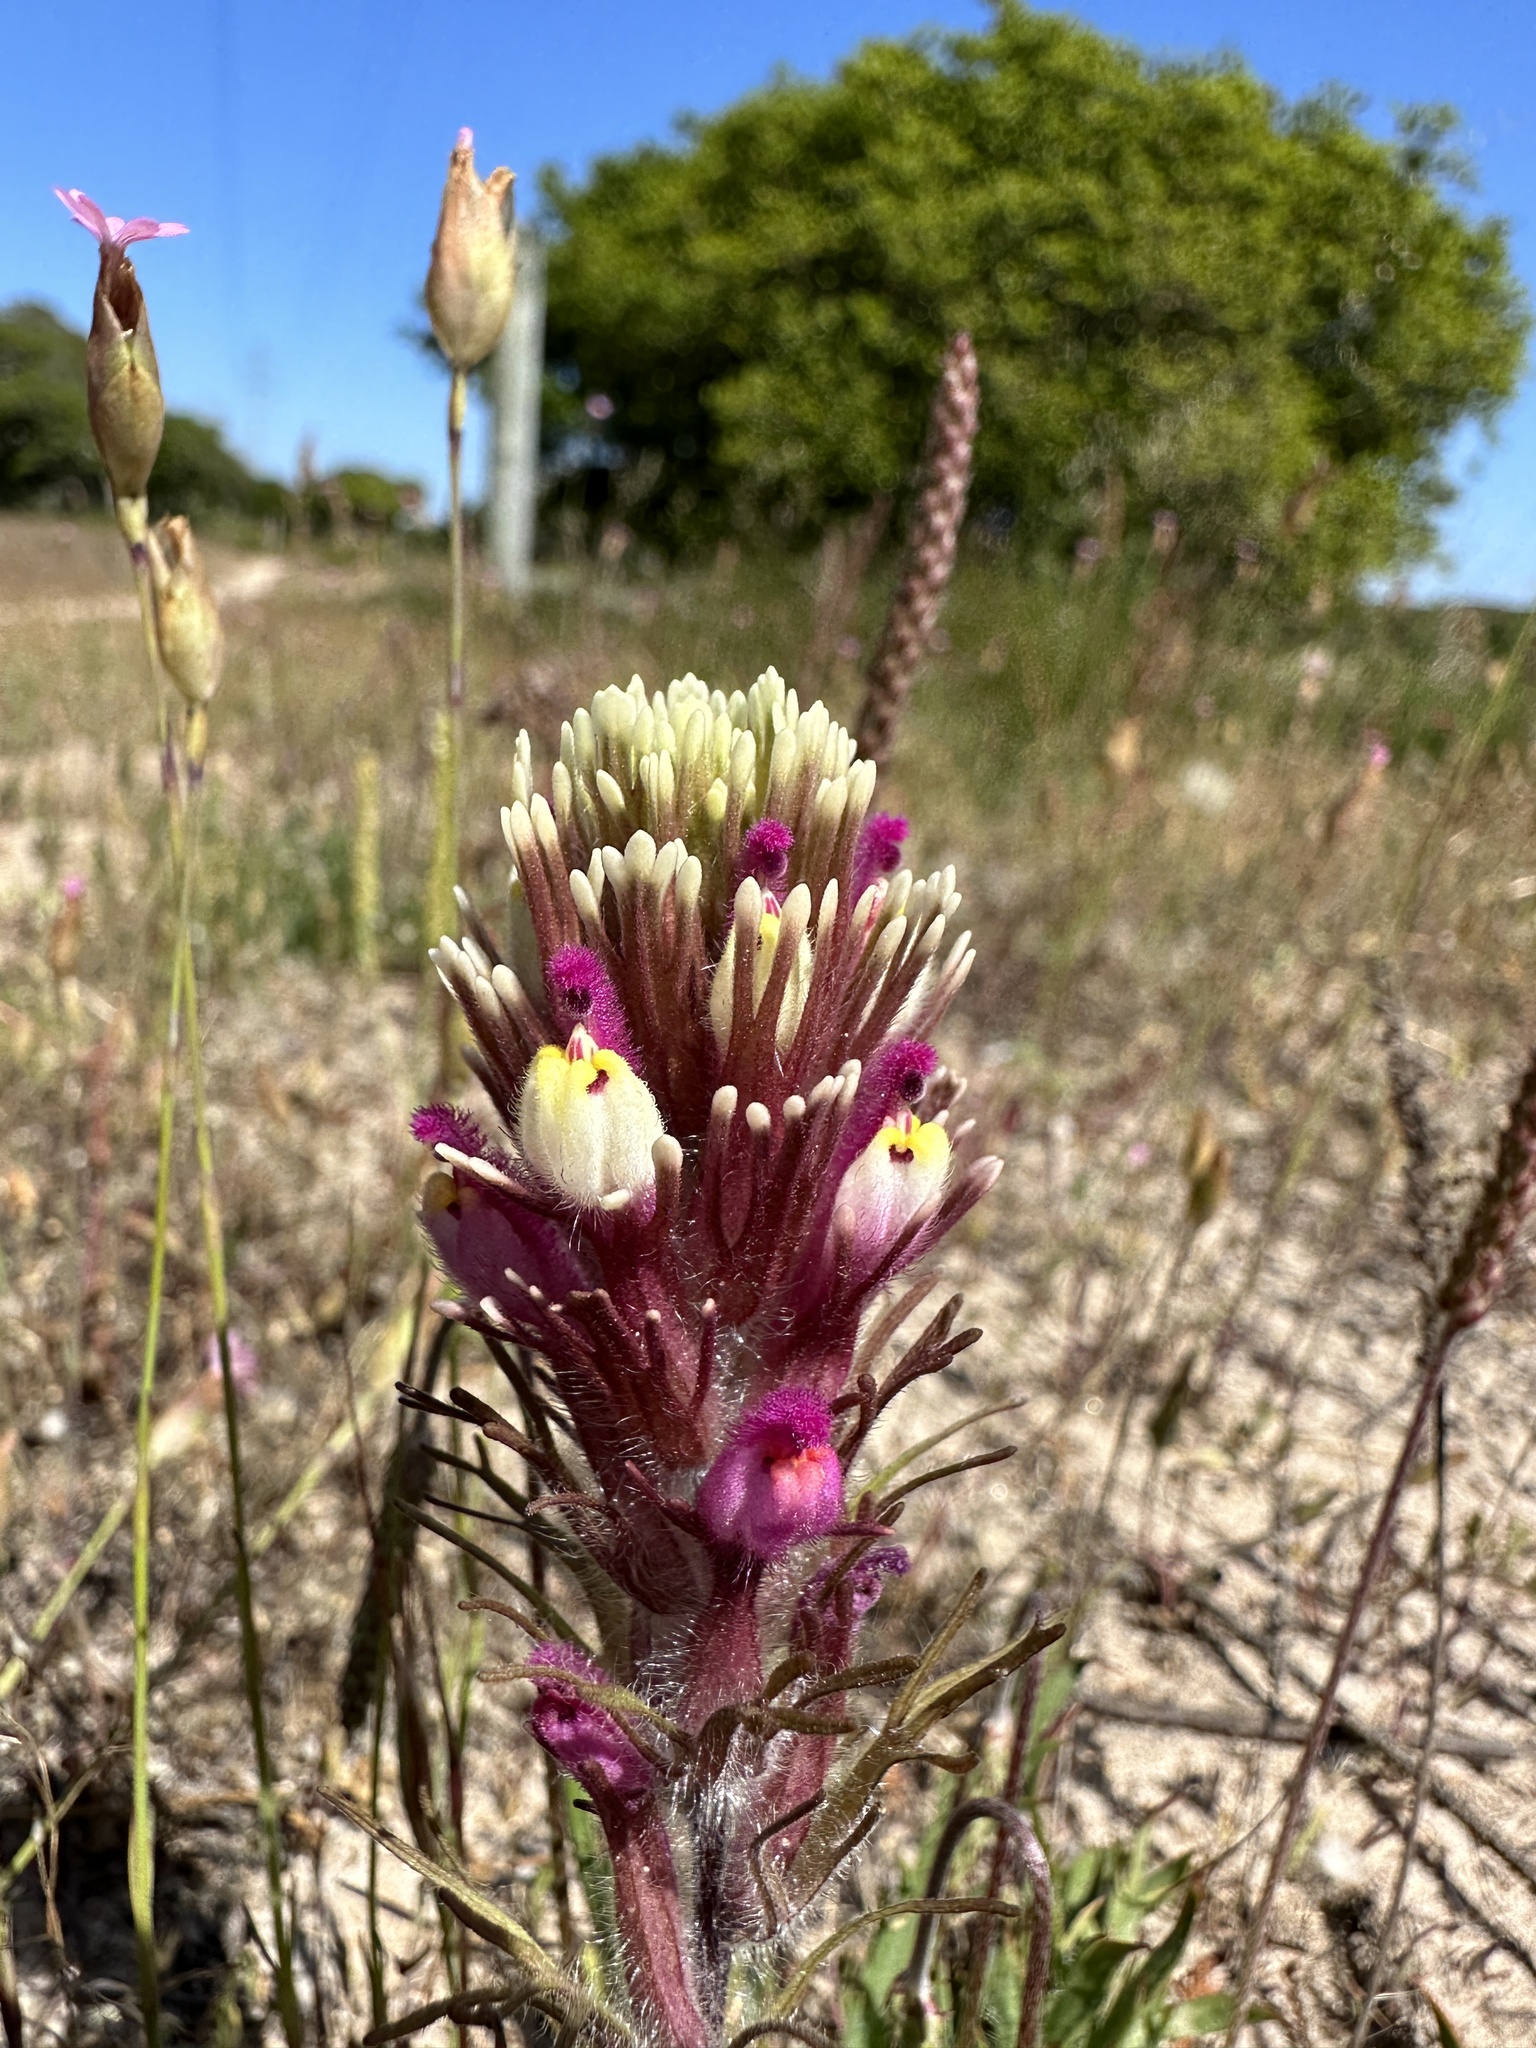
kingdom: Plantae
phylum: Tracheophyta
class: Magnoliopsida
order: Lamiales
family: Orobanchaceae
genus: Castilleja
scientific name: Castilleja exserta
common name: Purple owl-clover
